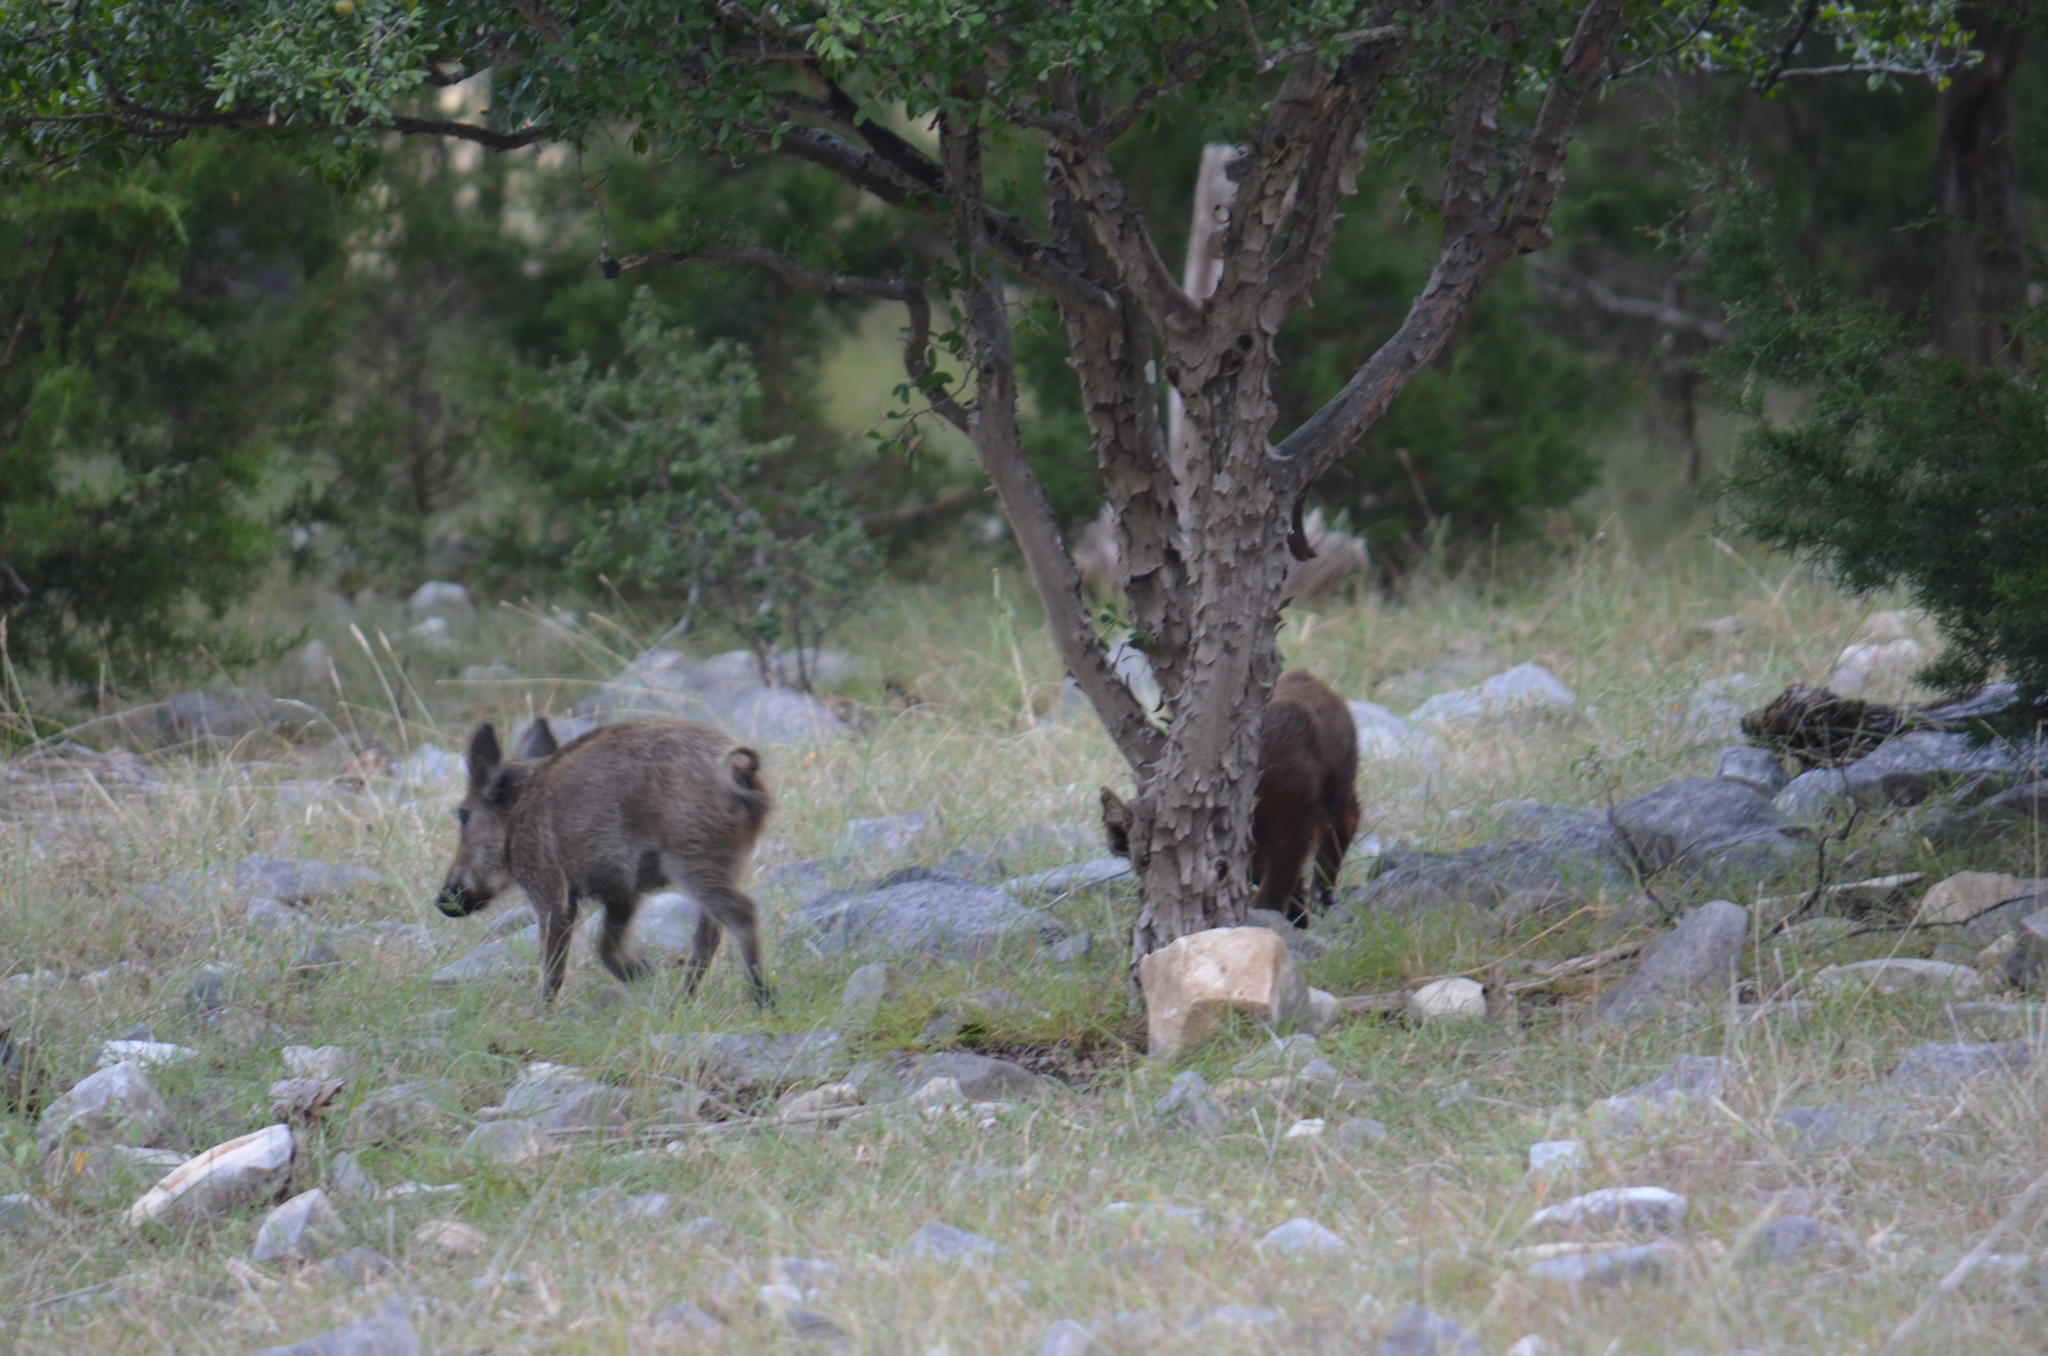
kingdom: Animalia
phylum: Chordata
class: Mammalia
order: Artiodactyla
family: Suidae
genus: Sus
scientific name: Sus scrofa
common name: Wild boar
